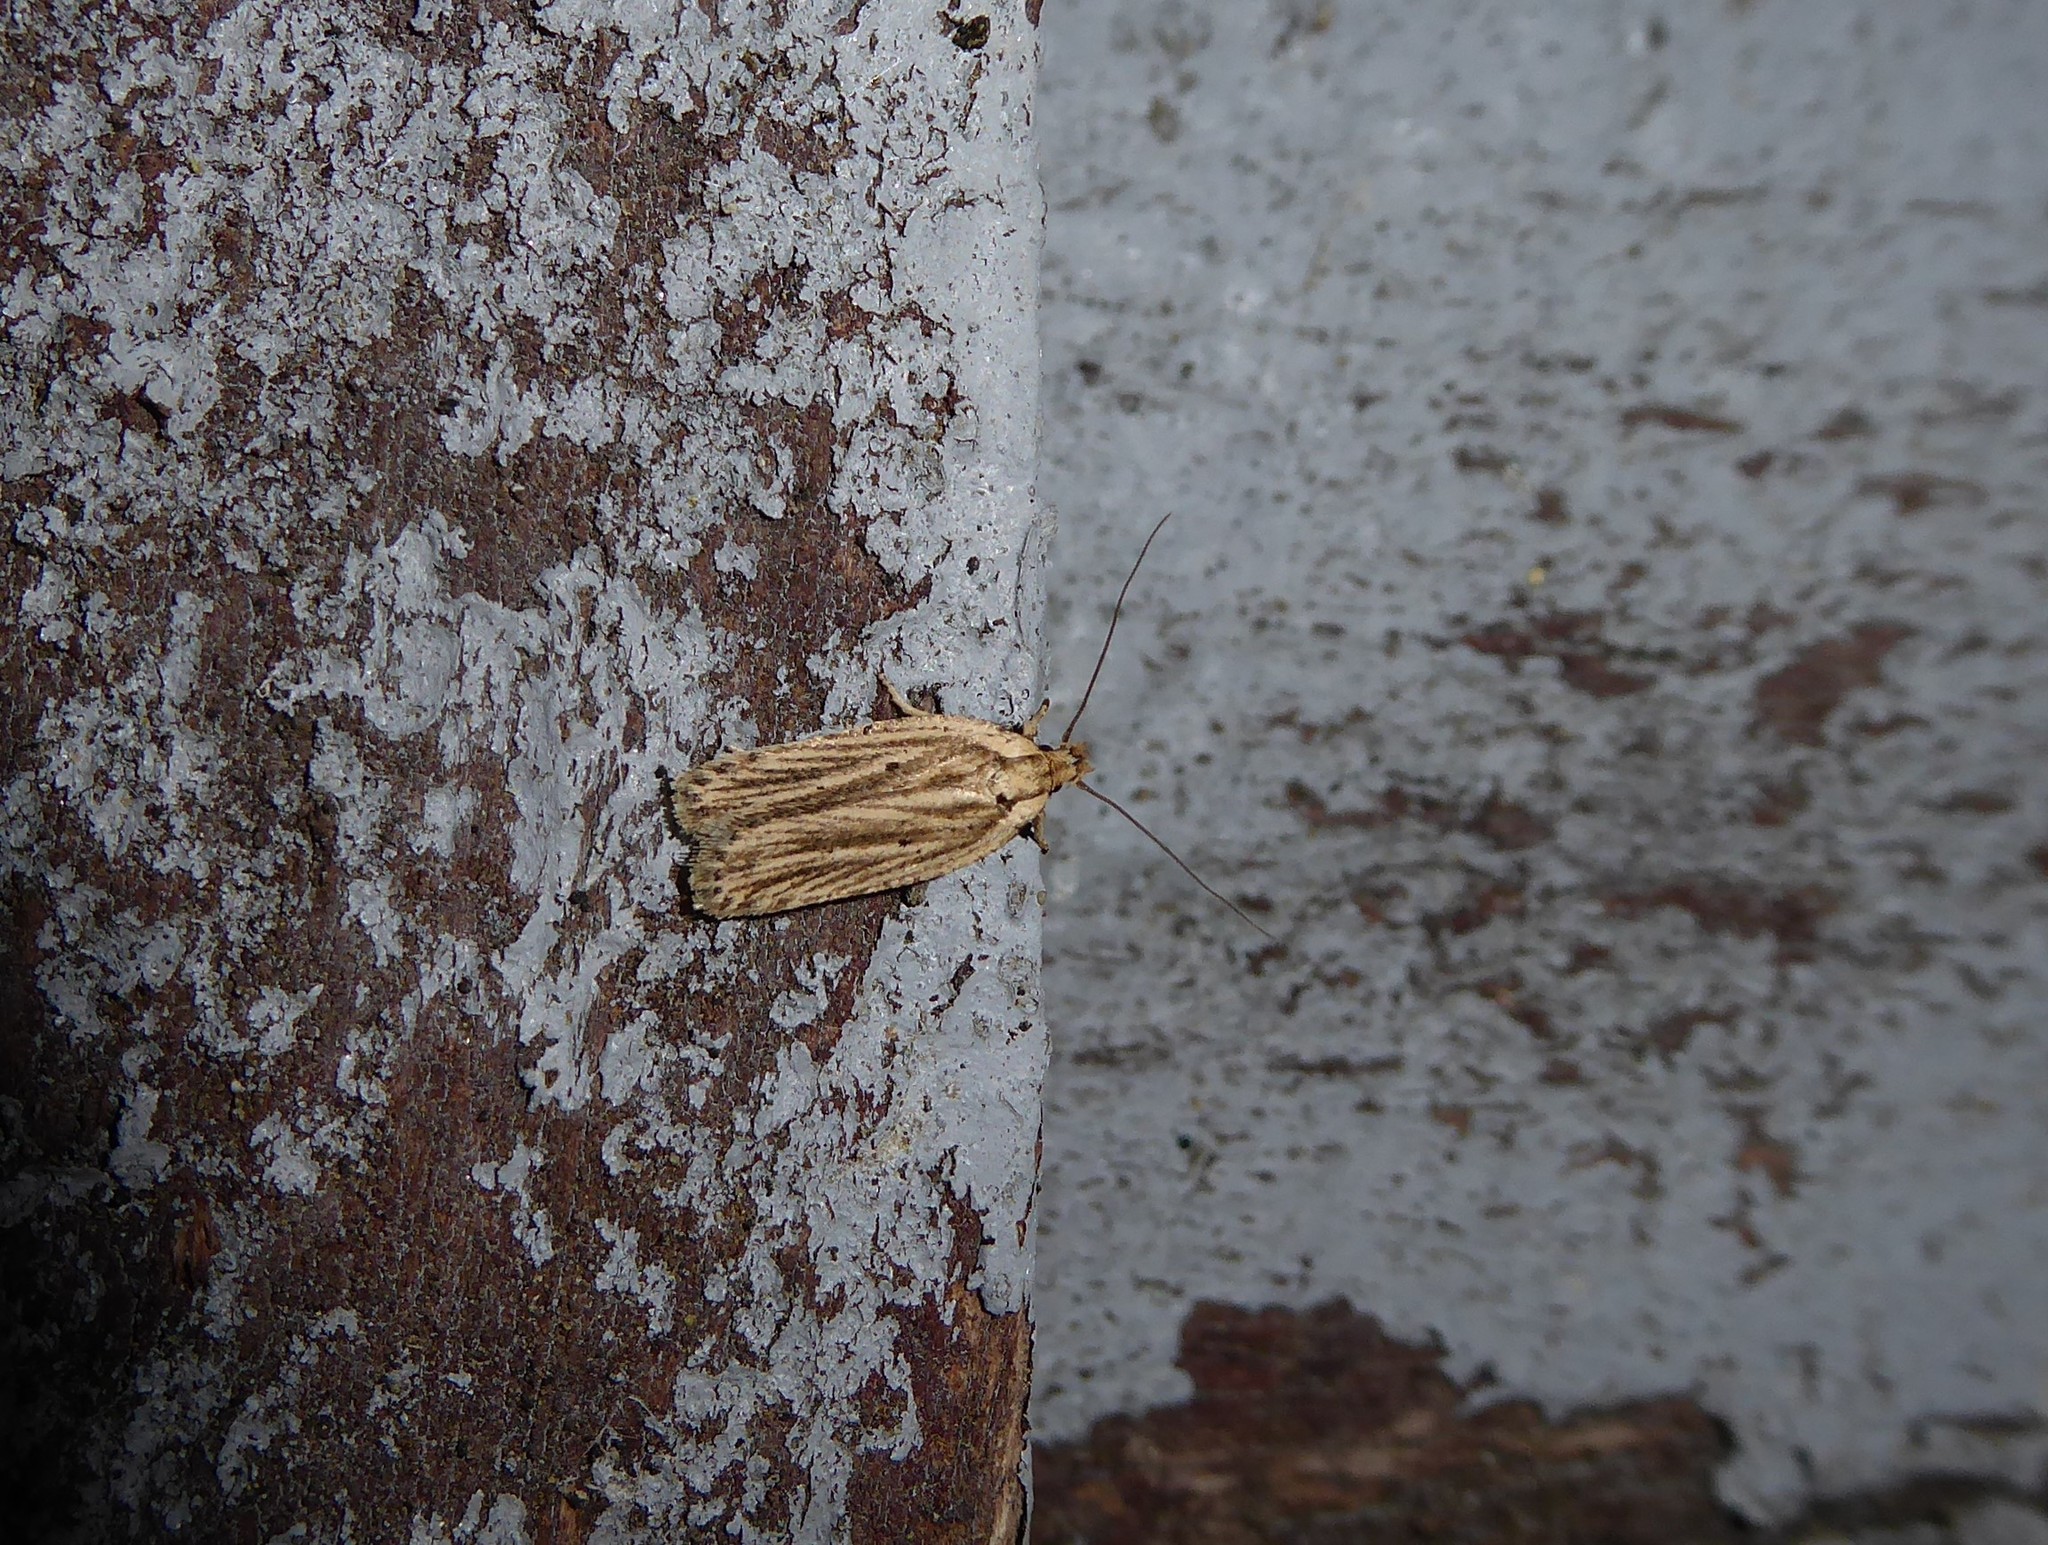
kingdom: Animalia
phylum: Arthropoda
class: Insecta
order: Lepidoptera
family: Depressariidae
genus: Agonopterix
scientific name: Agonopterix
